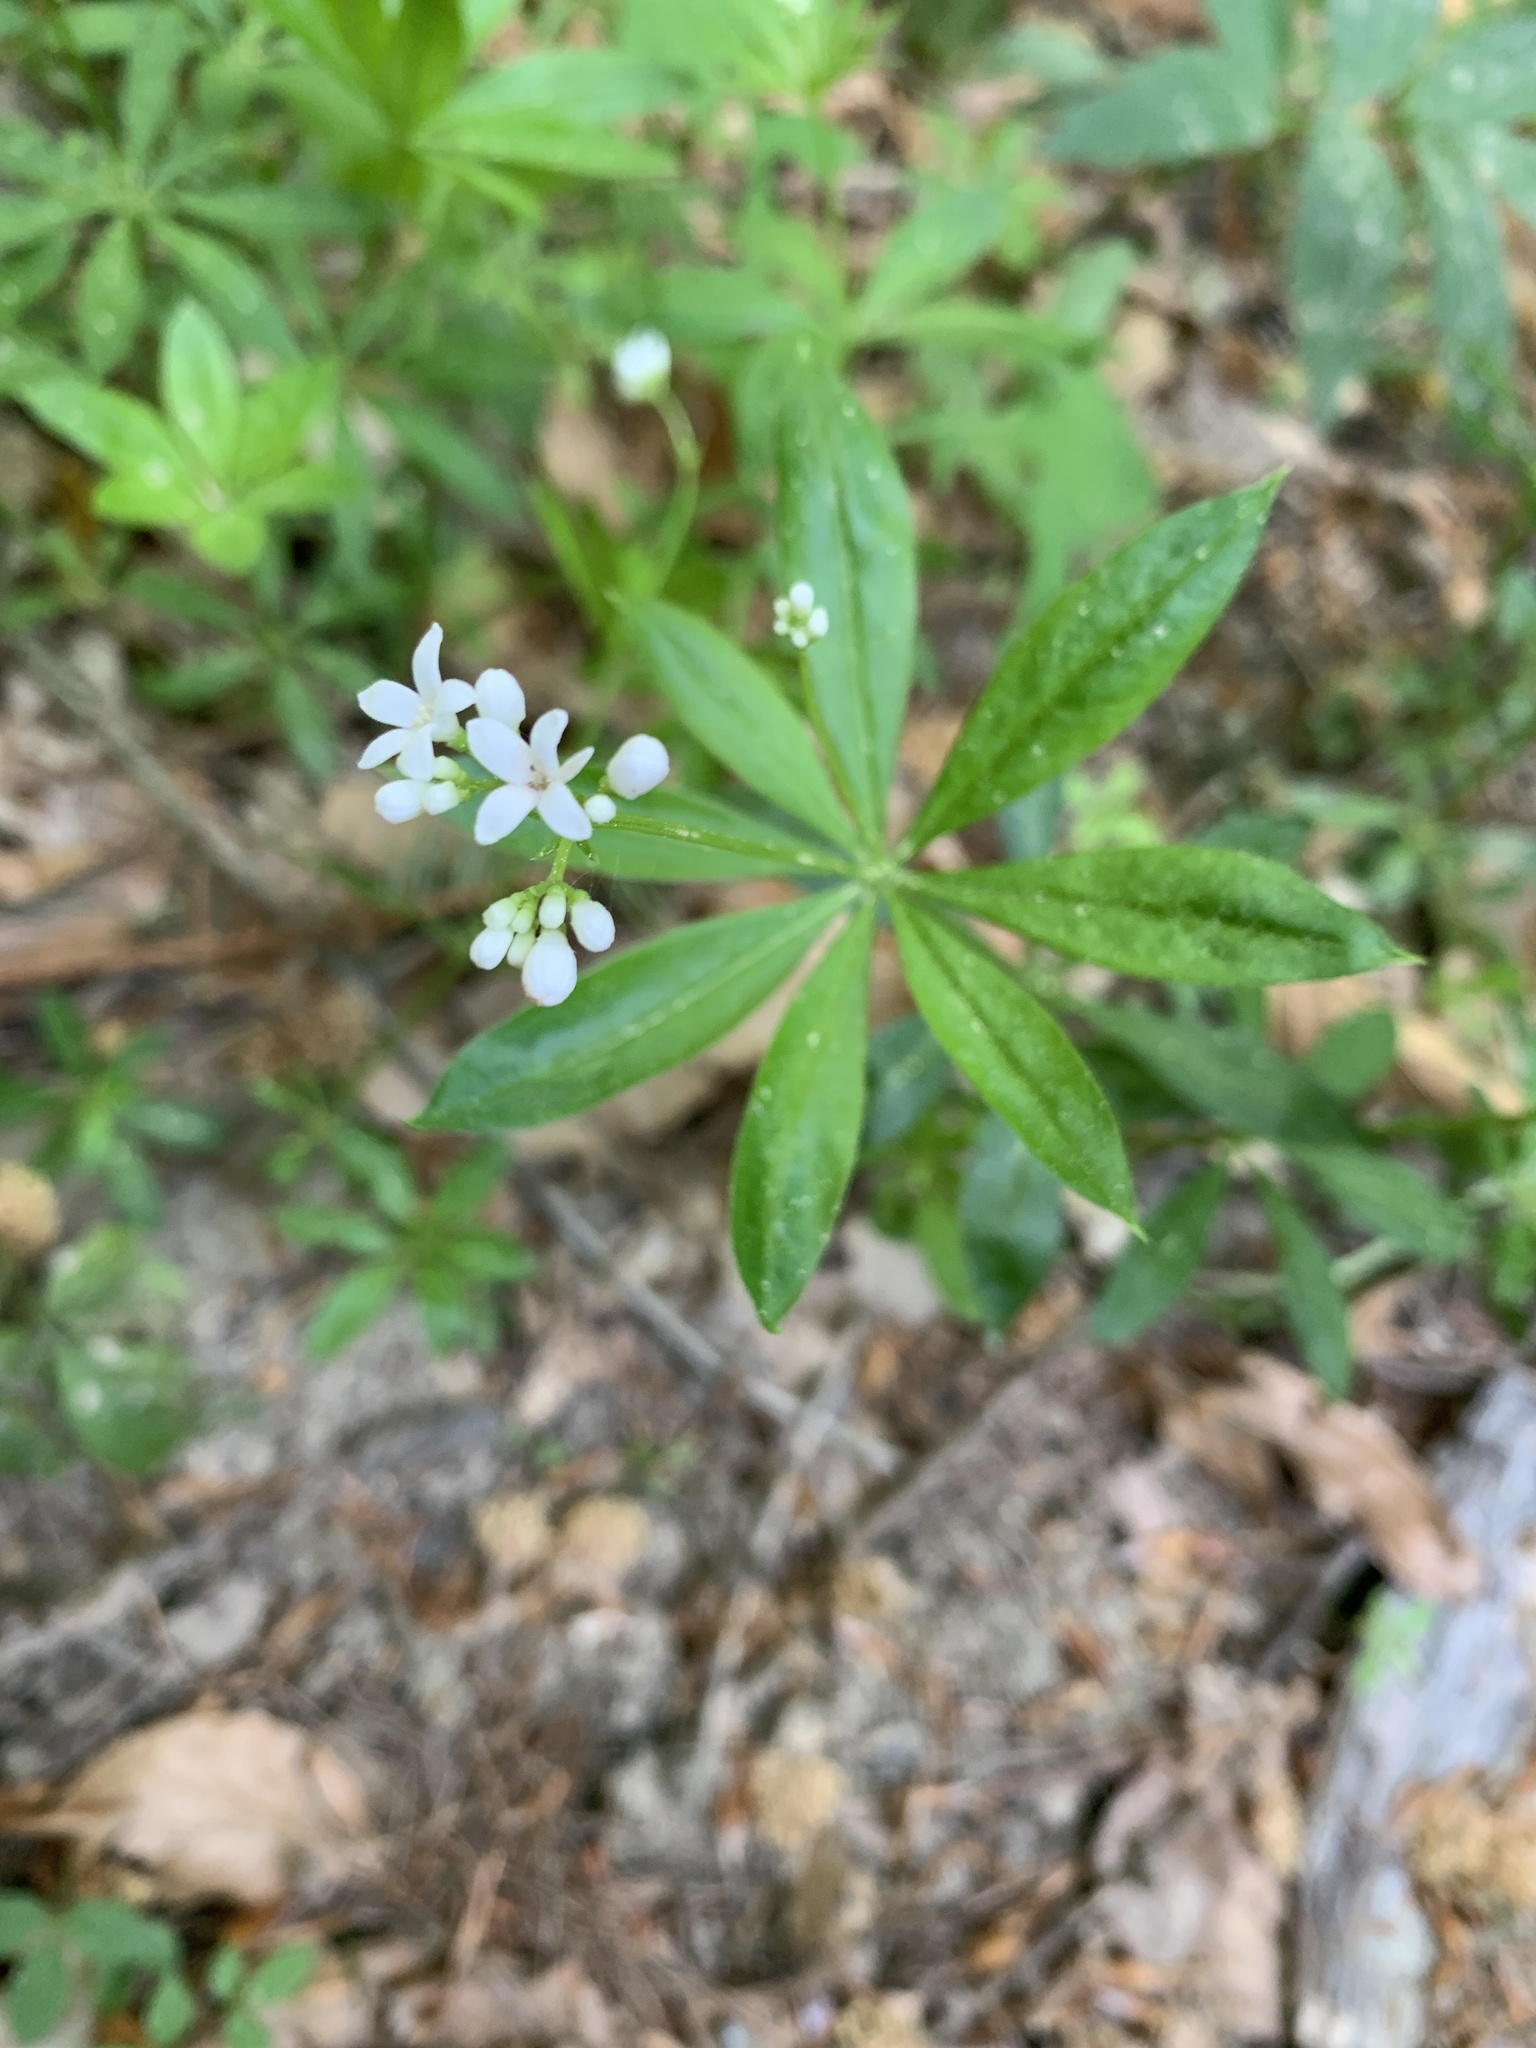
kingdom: Plantae
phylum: Tracheophyta
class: Magnoliopsida
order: Gentianales
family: Rubiaceae
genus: Galium
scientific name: Galium odoratum
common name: Sweet woodruff
